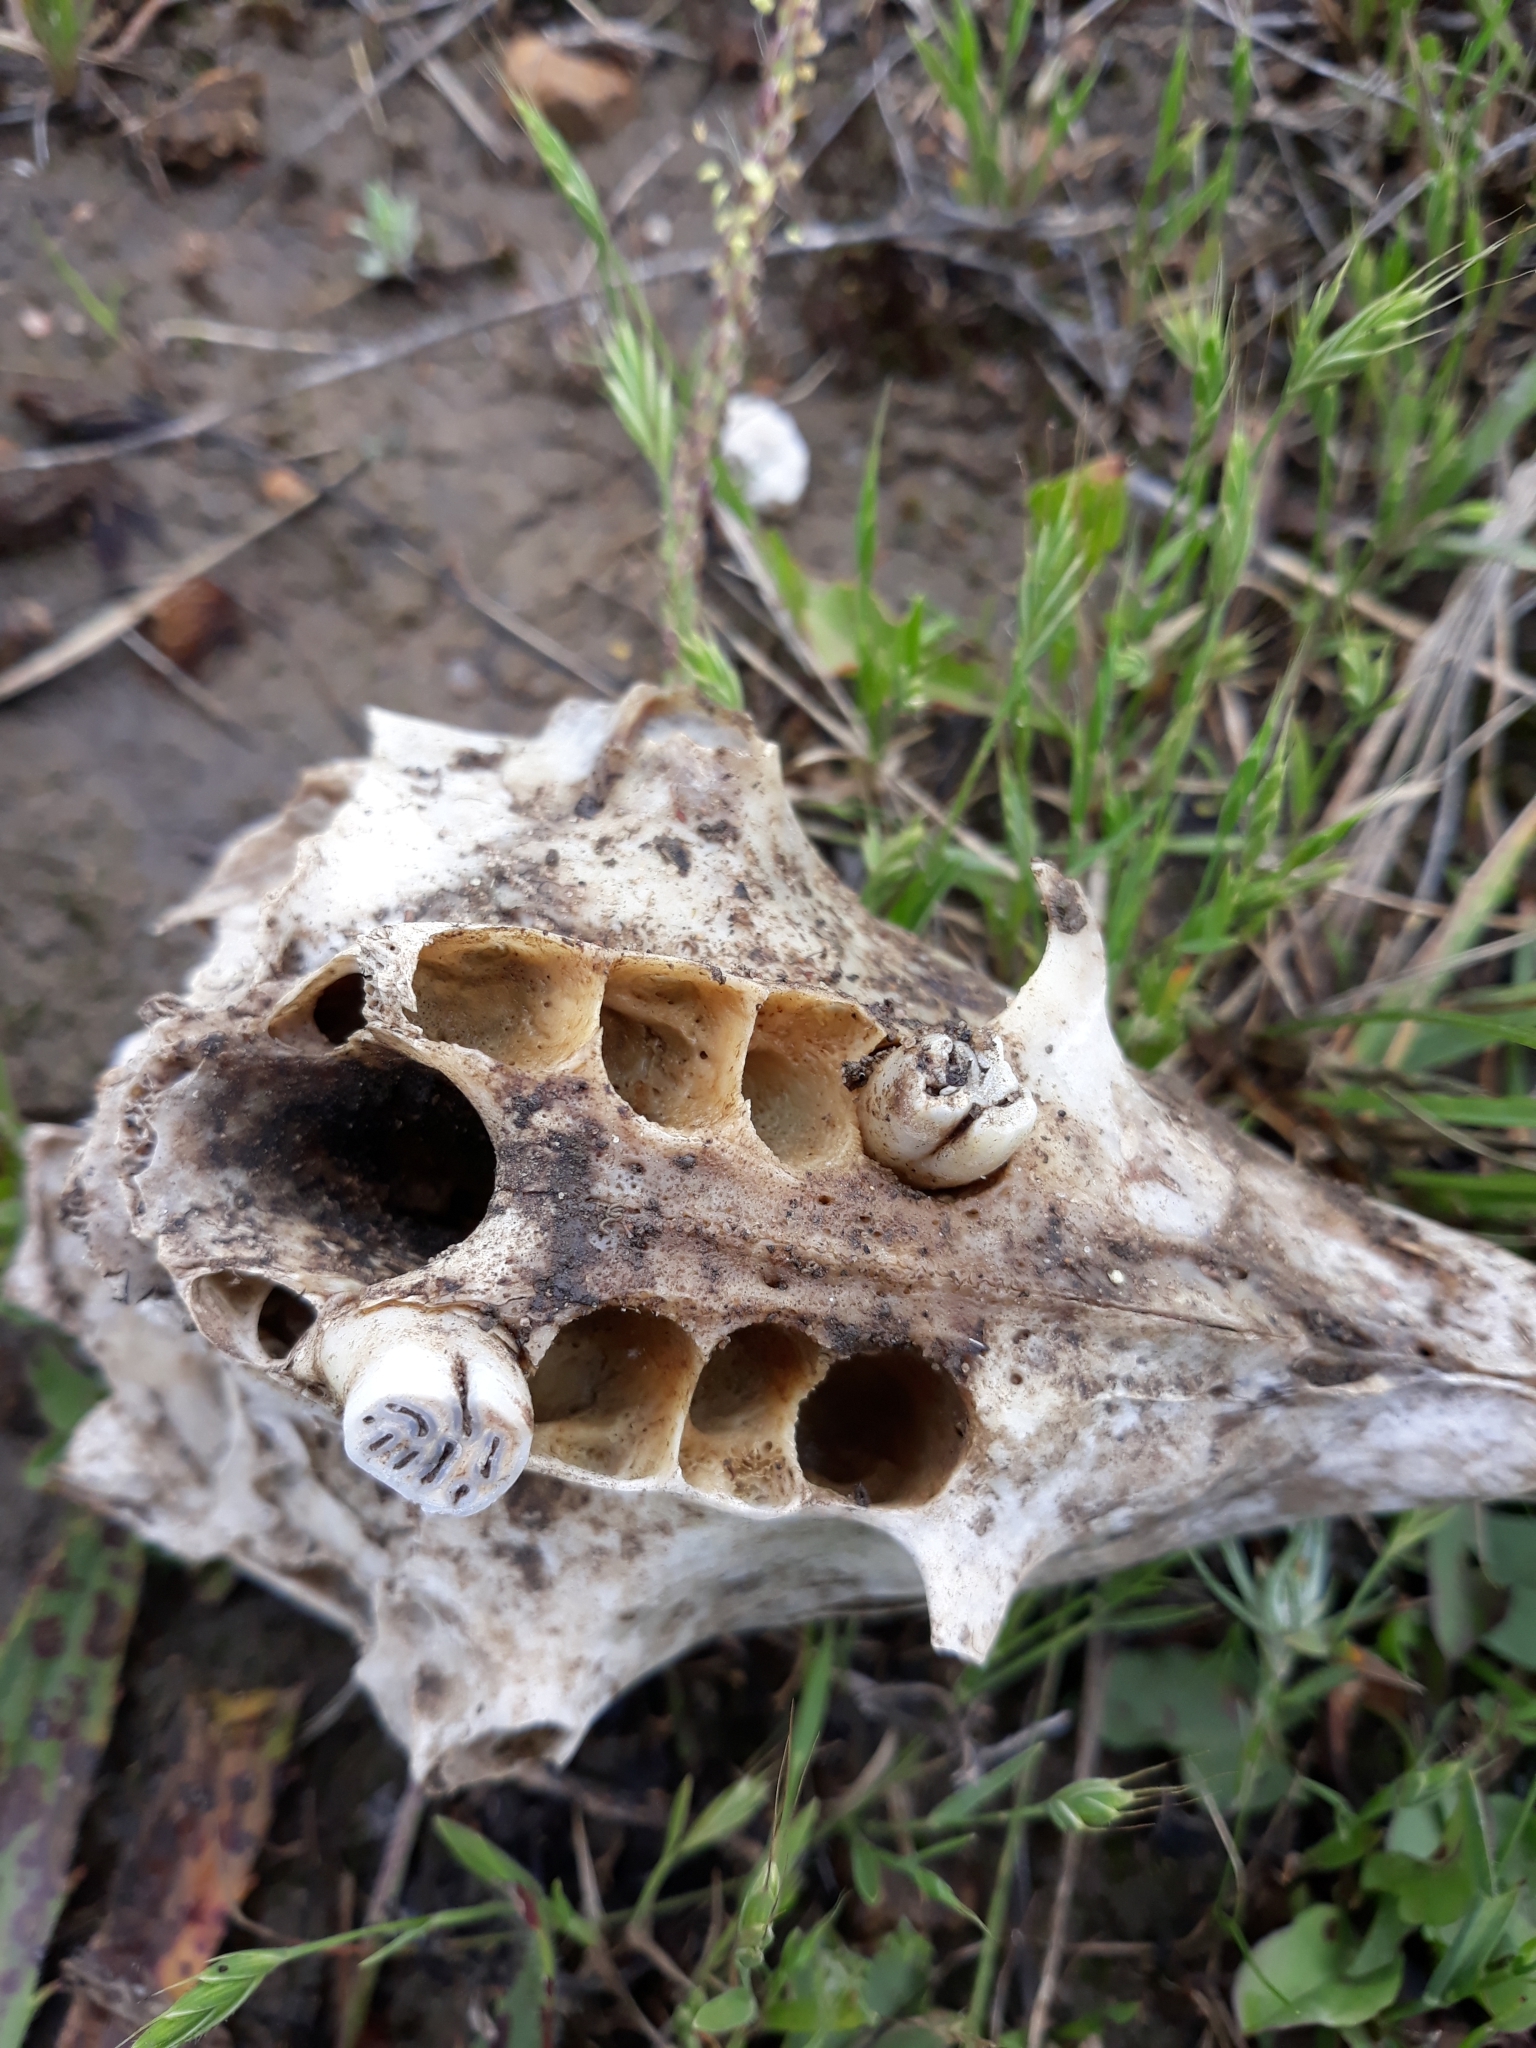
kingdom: Animalia
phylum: Chordata
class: Mammalia
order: Rodentia
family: Hystricidae
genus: Hystrix
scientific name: Hystrix cristata
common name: Crested porcupine
